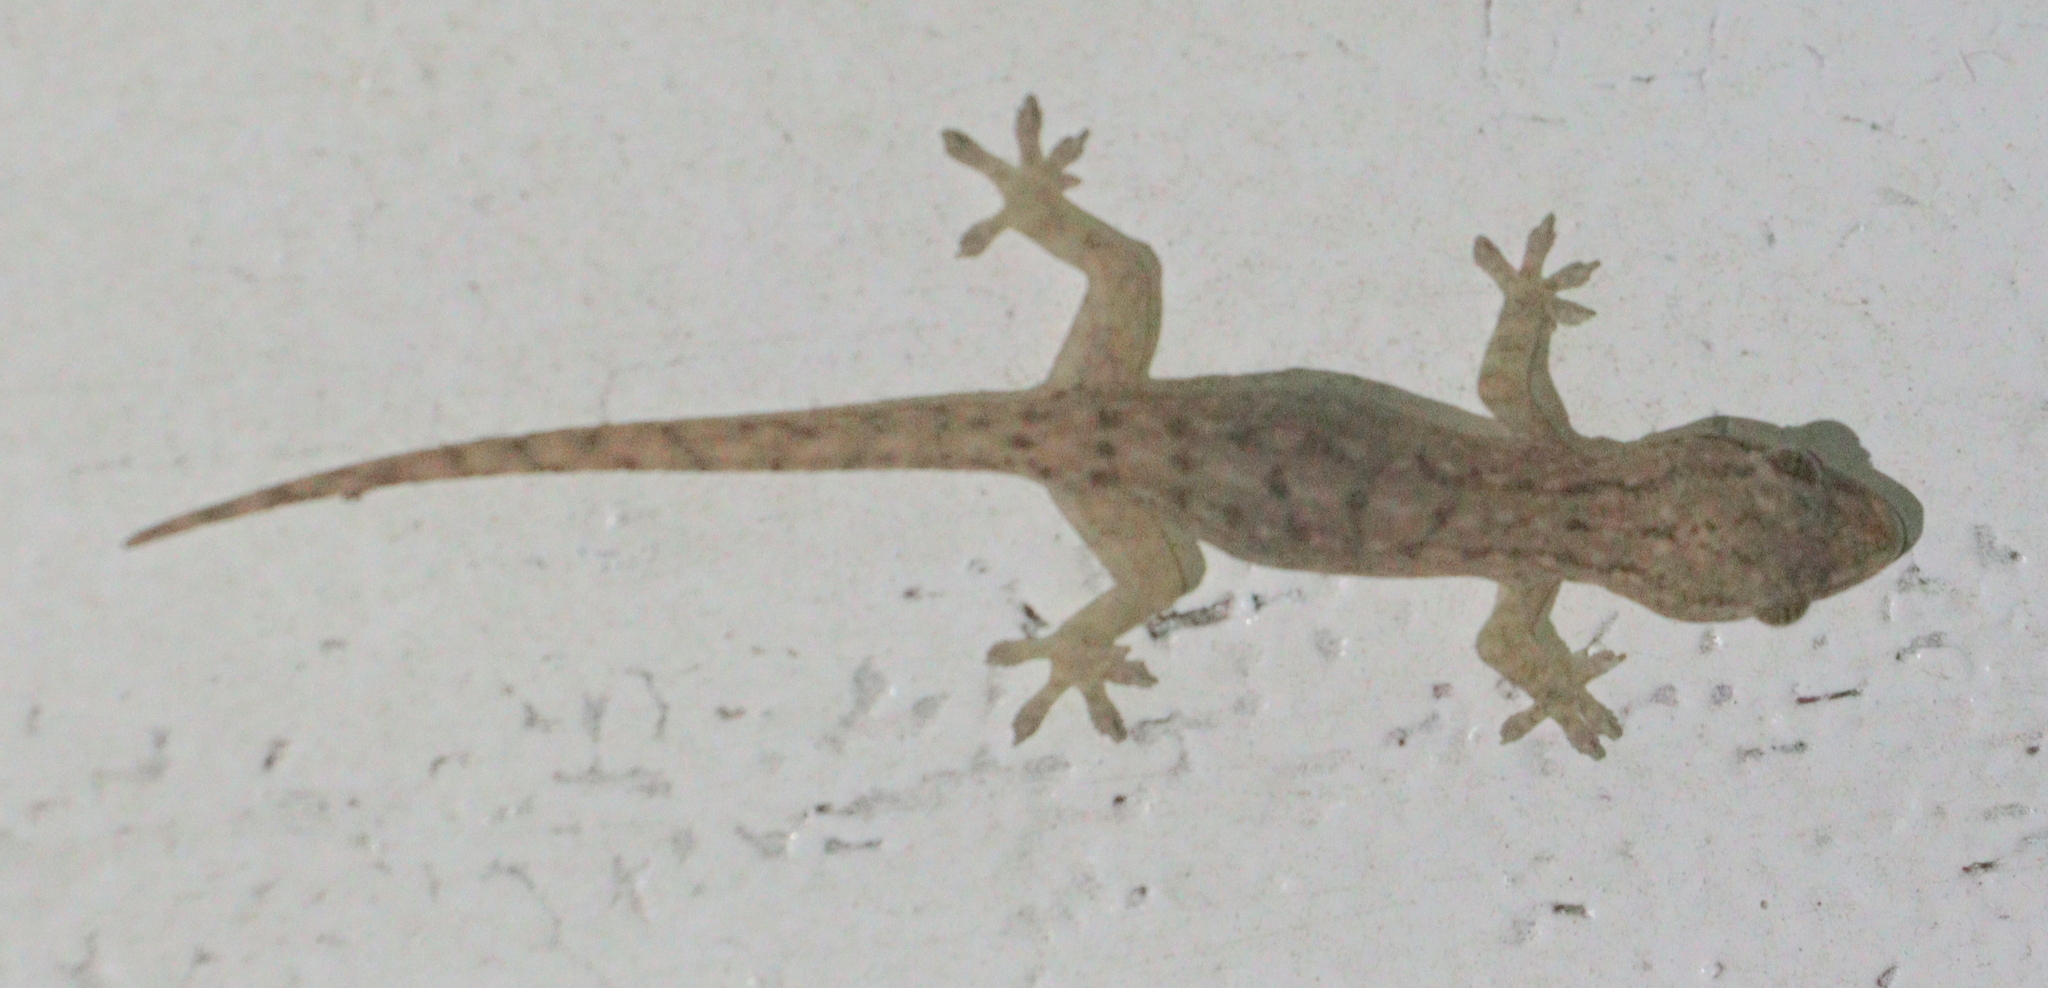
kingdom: Animalia
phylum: Chordata
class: Squamata
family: Gekkonidae
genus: Hemidactylus
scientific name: Hemidactylus frenatus
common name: Common house gecko
